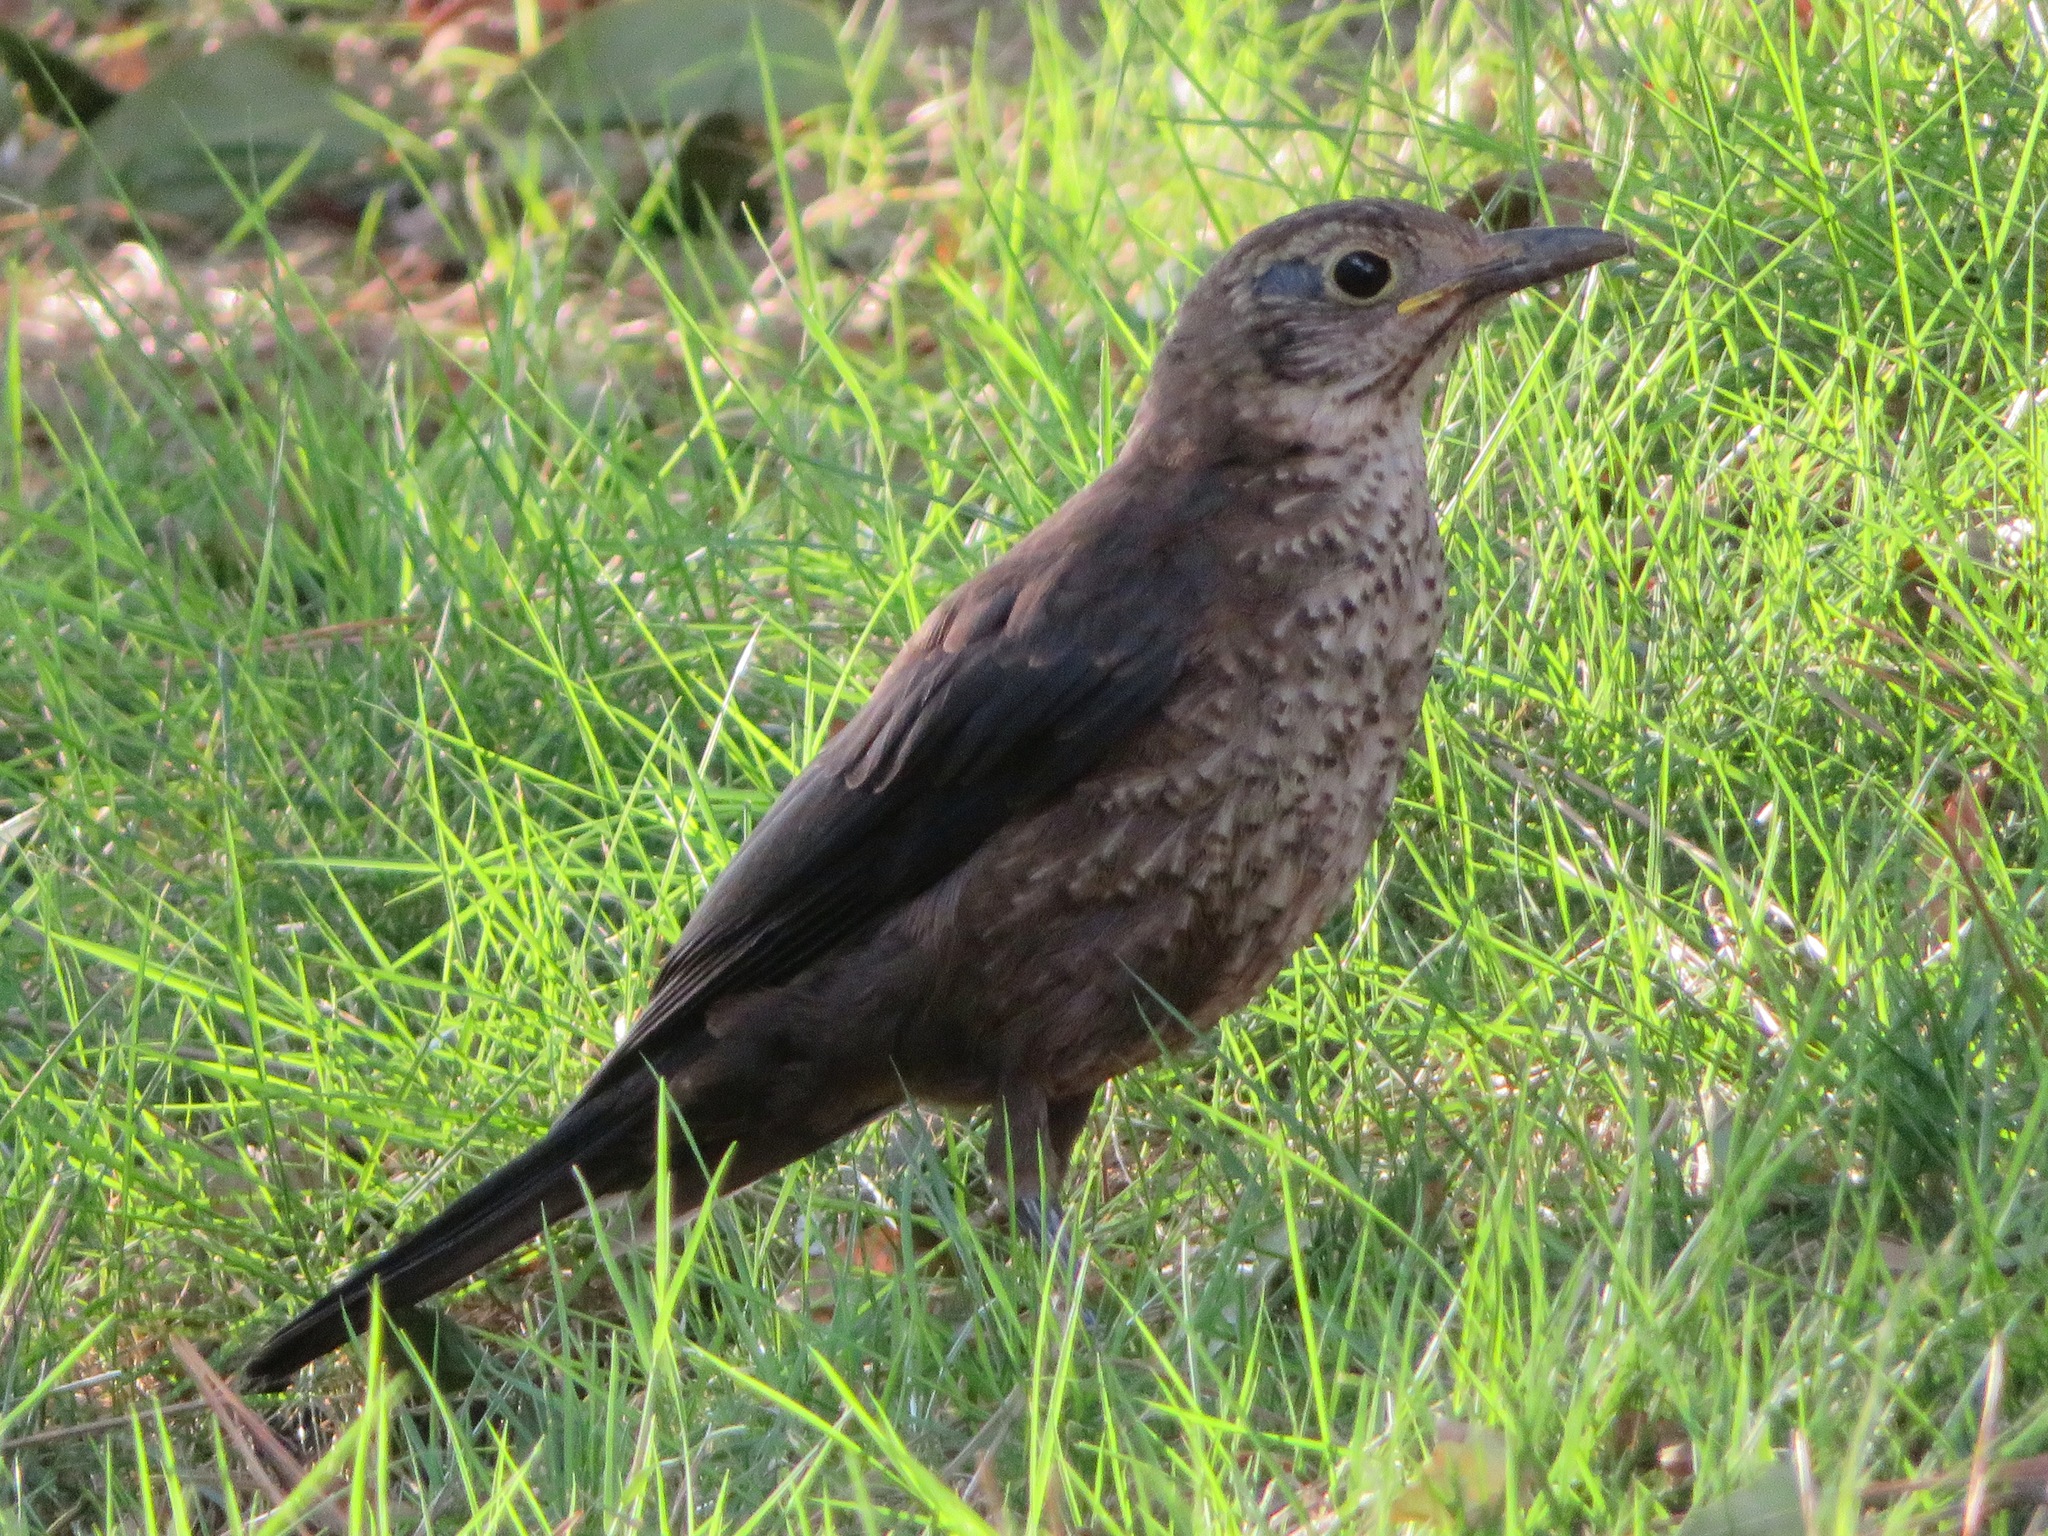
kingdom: Animalia
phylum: Chordata
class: Aves
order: Passeriformes
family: Turdidae
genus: Turdus
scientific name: Turdus mandarinus
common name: Chinese blackbird
